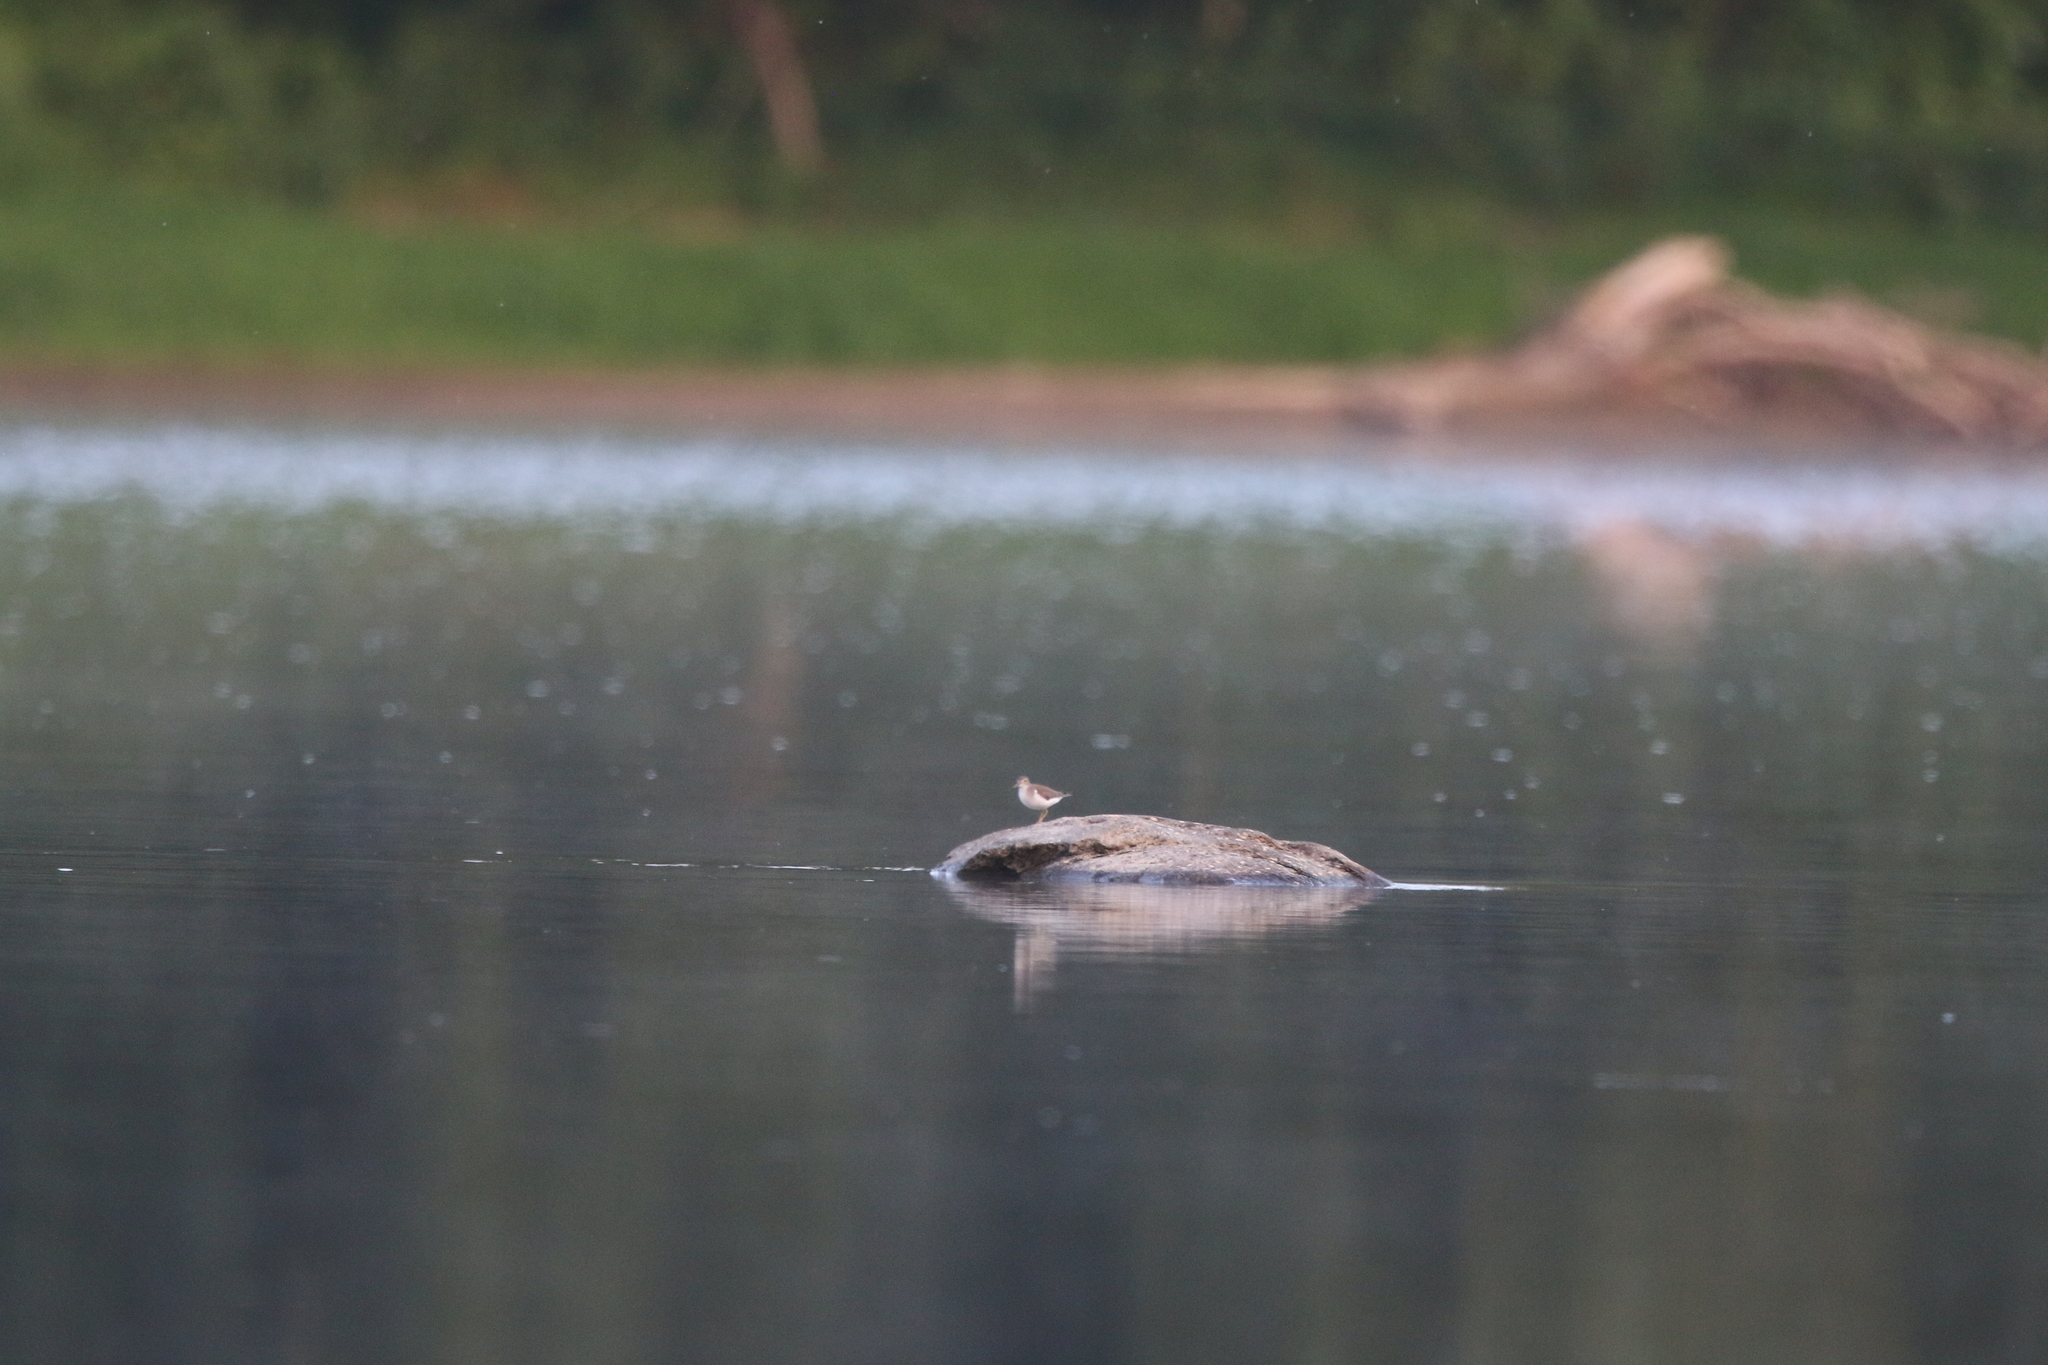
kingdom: Animalia
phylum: Chordata
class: Aves
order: Charadriiformes
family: Scolopacidae
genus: Actitis
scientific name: Actitis macularius
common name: Spotted sandpiper
